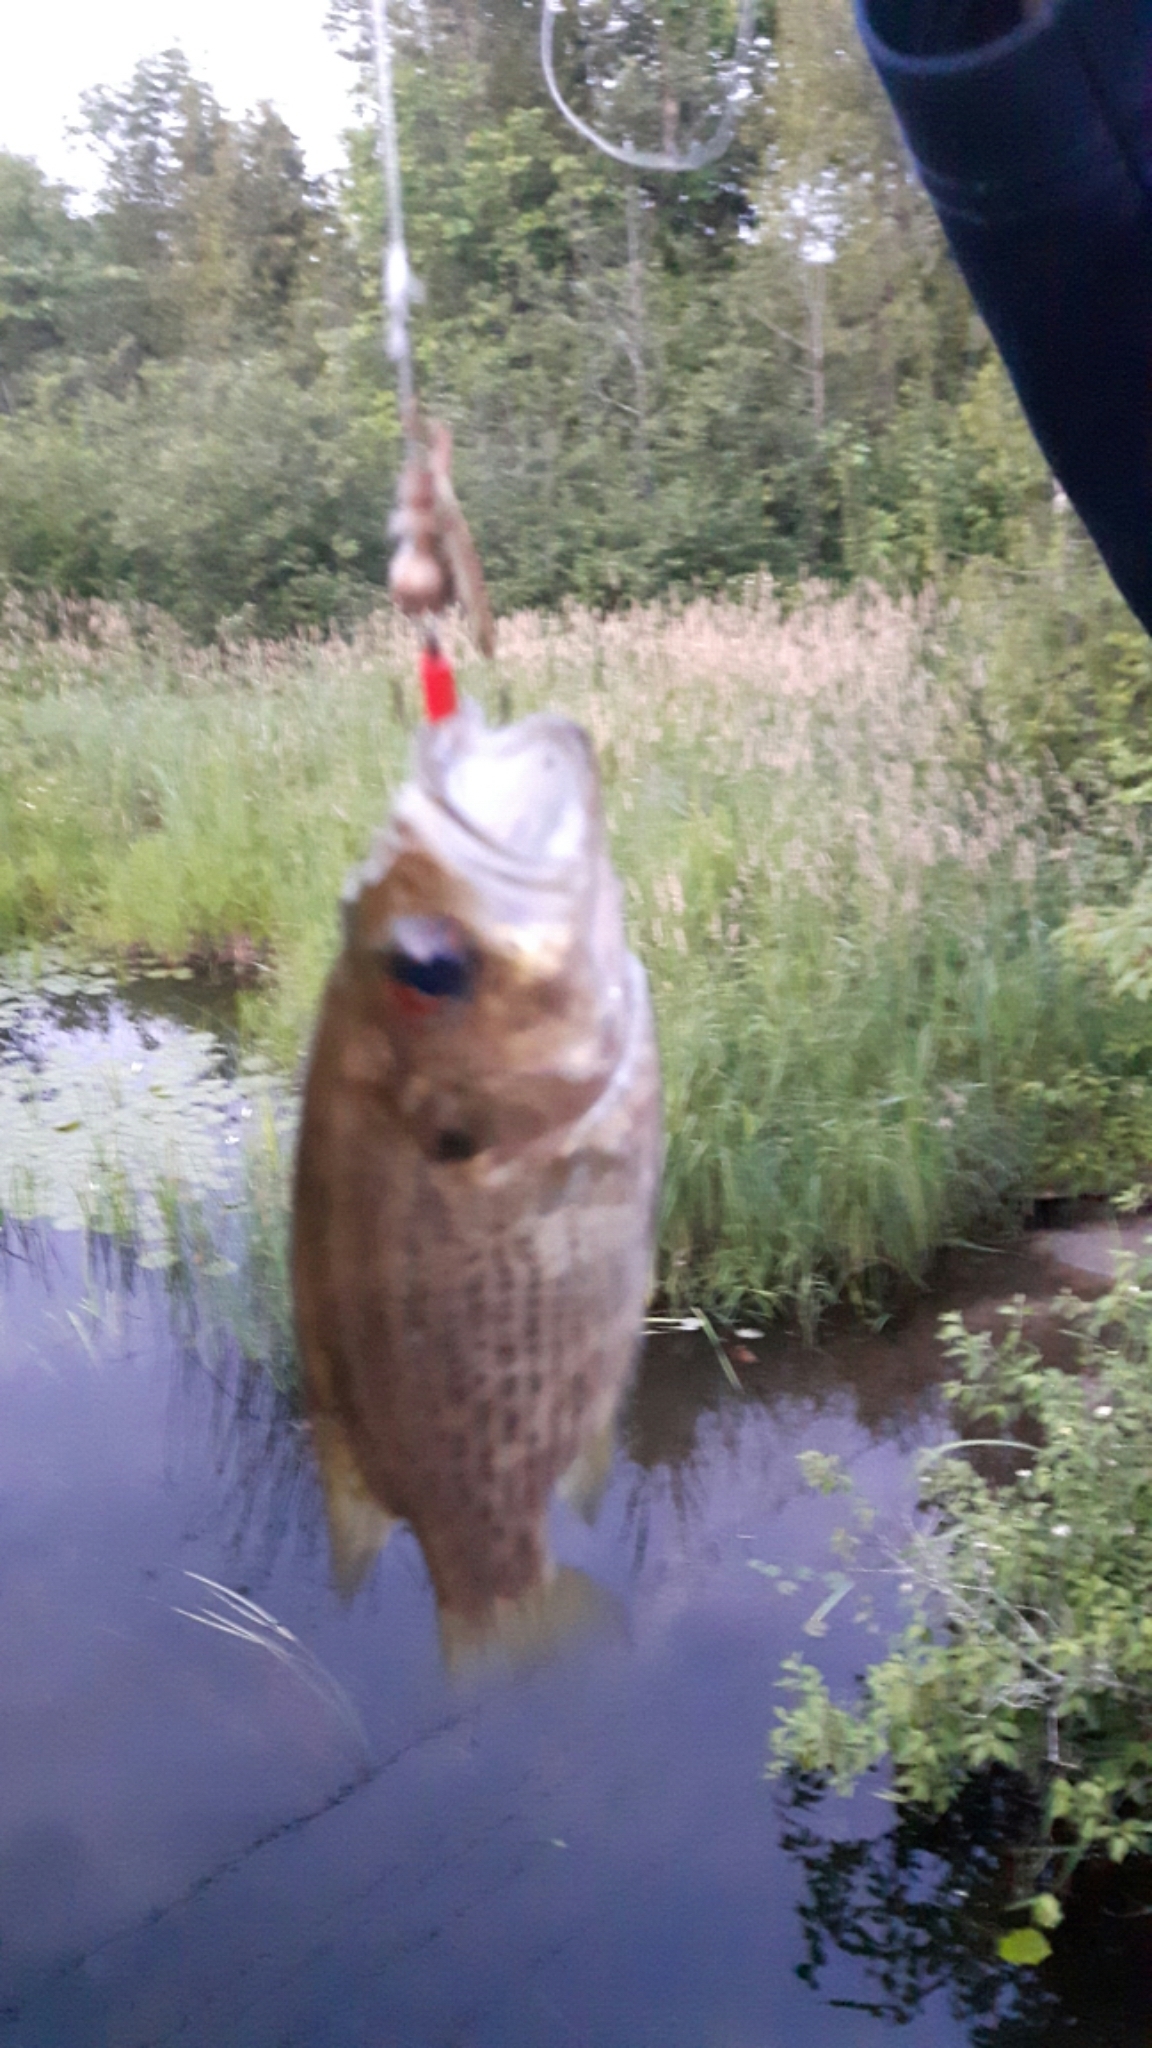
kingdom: Animalia
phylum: Chordata
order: Perciformes
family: Centrarchidae
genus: Ambloplites
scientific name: Ambloplites rupestris
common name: Rock bass
